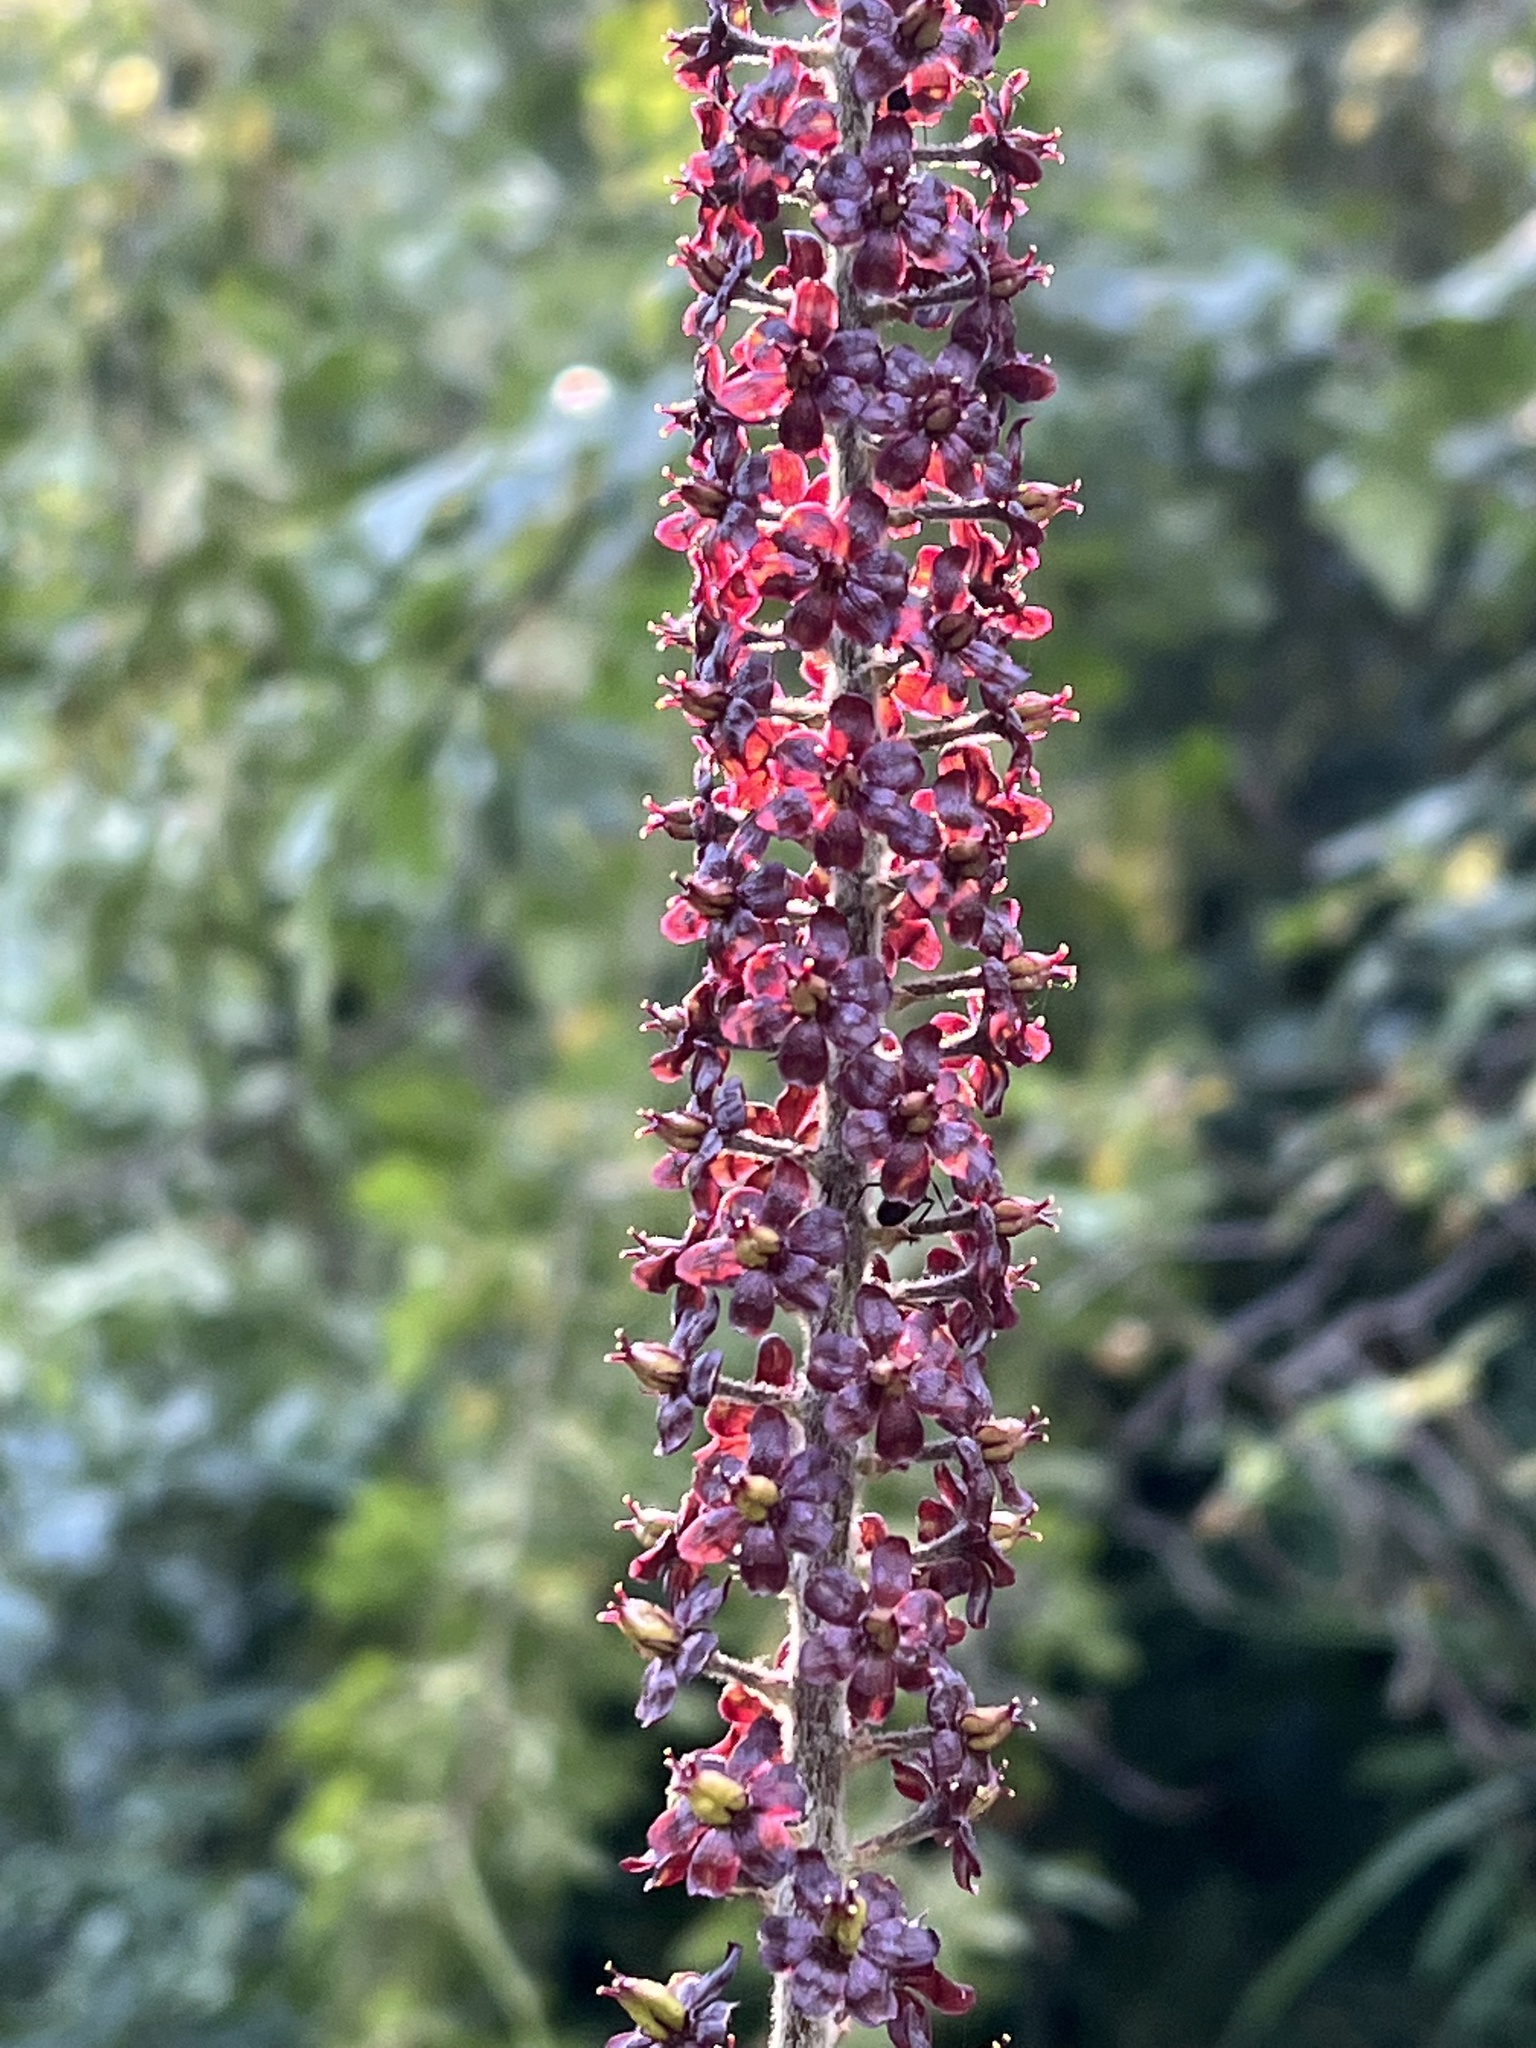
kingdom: Plantae
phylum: Tracheophyta
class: Liliopsida
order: Liliales
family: Melanthiaceae
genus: Veratrum
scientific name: Veratrum nigrum
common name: Black veratrum
